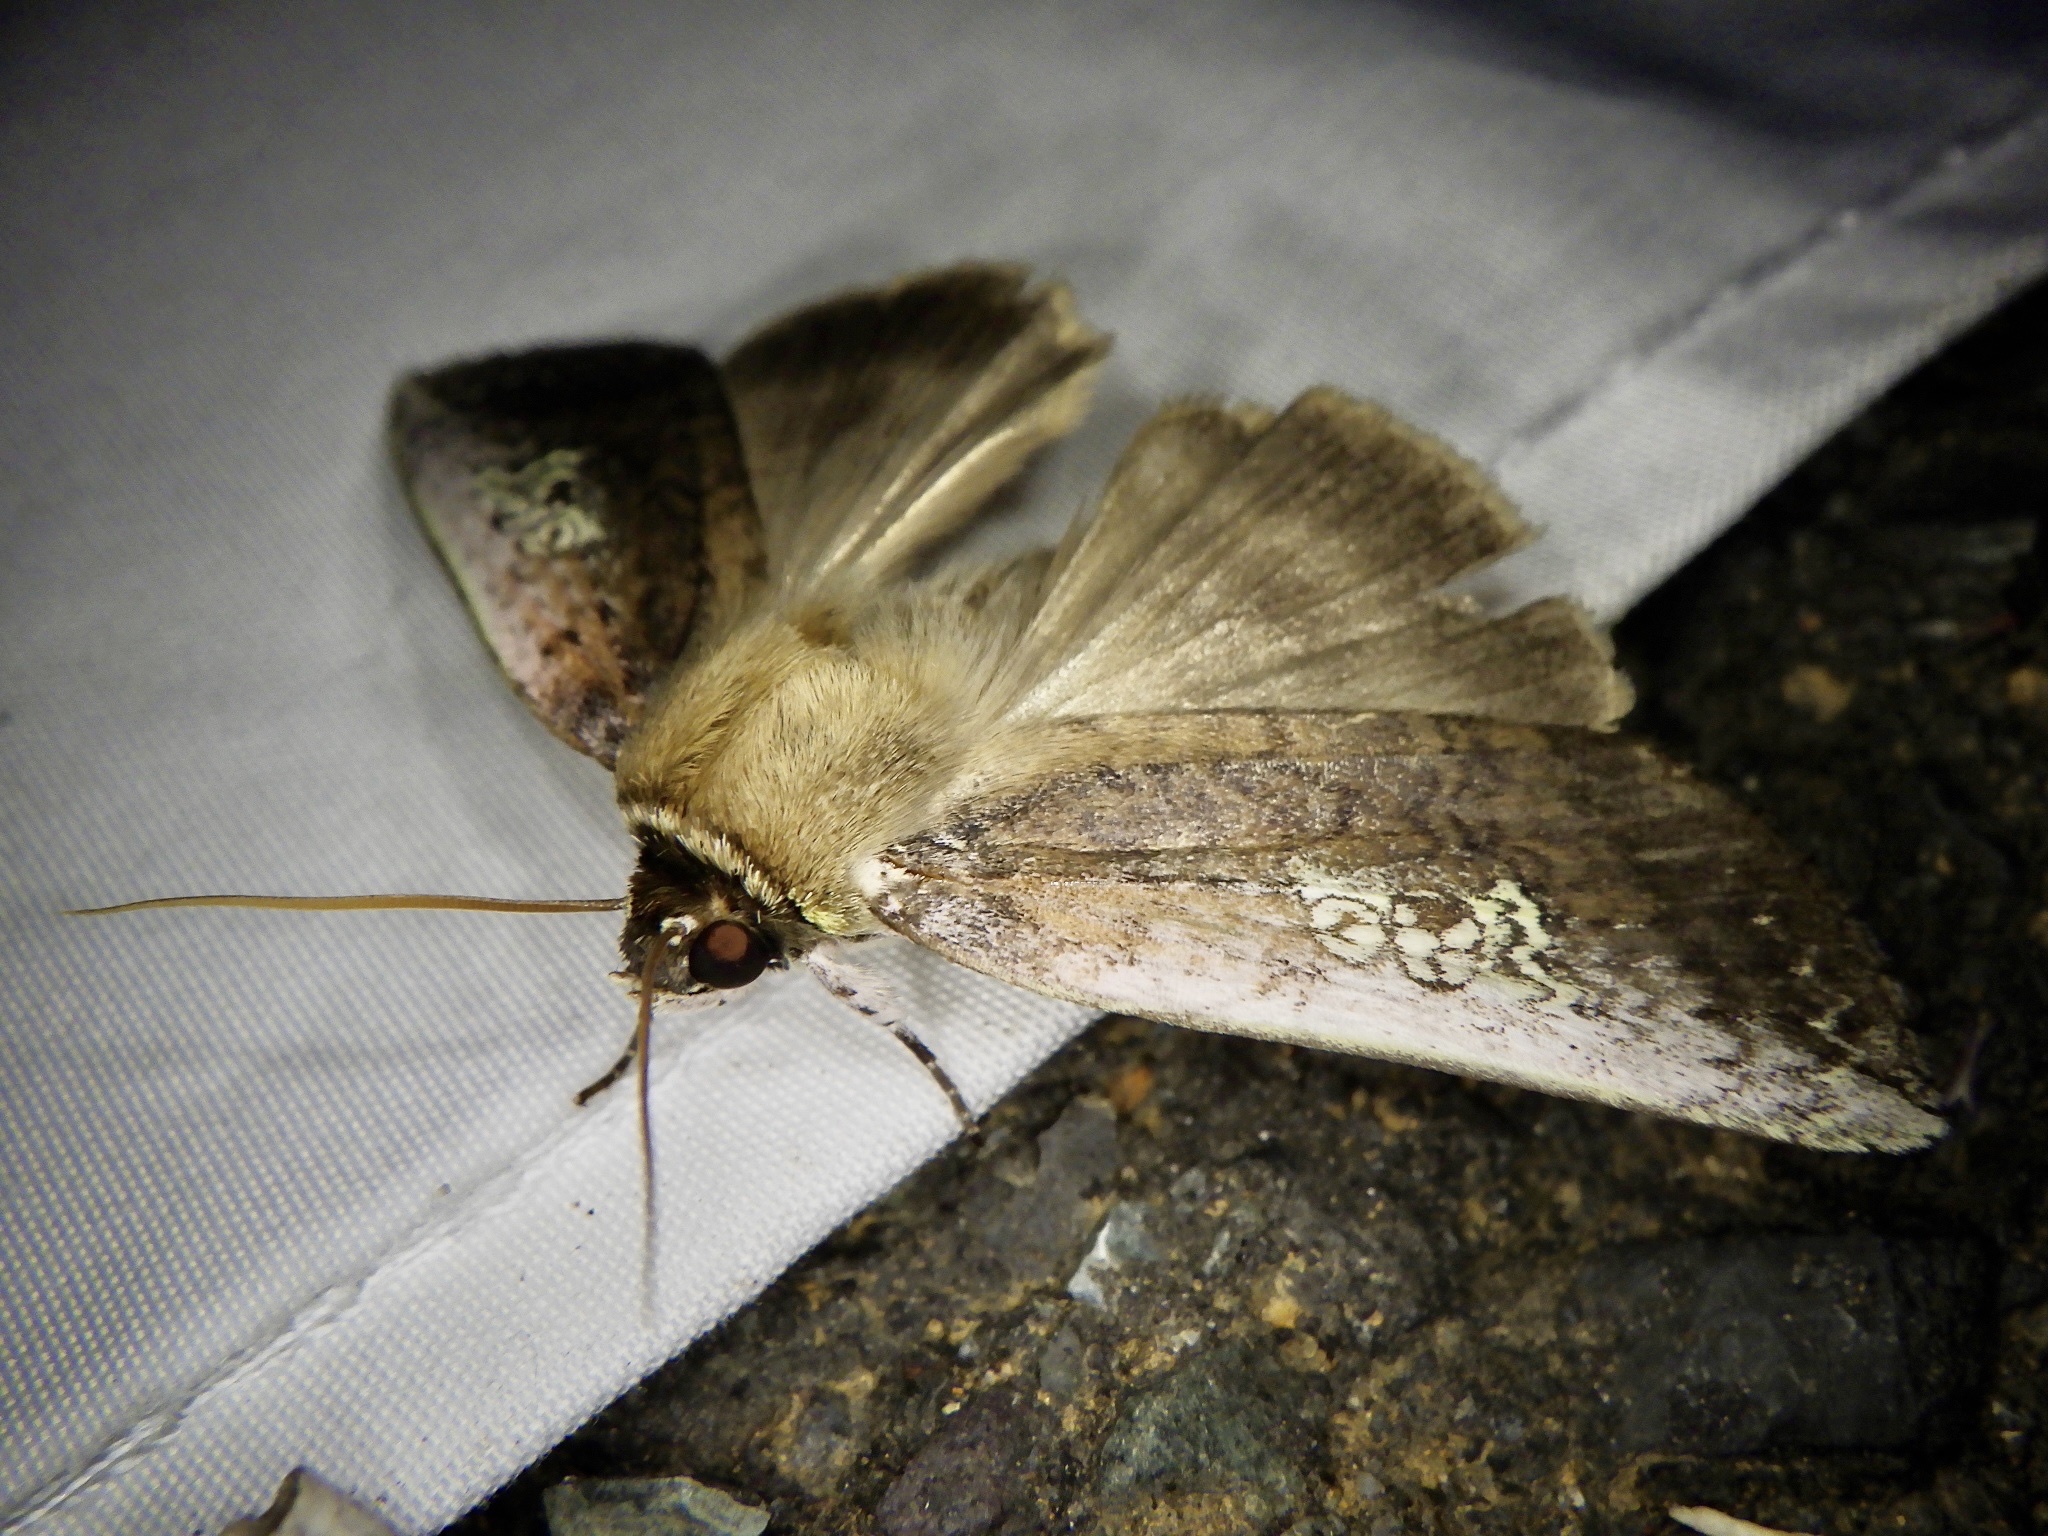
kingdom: Animalia
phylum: Arthropoda
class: Insecta
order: Lepidoptera
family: Drepanidae
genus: Tethea
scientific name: Tethea consimilis
